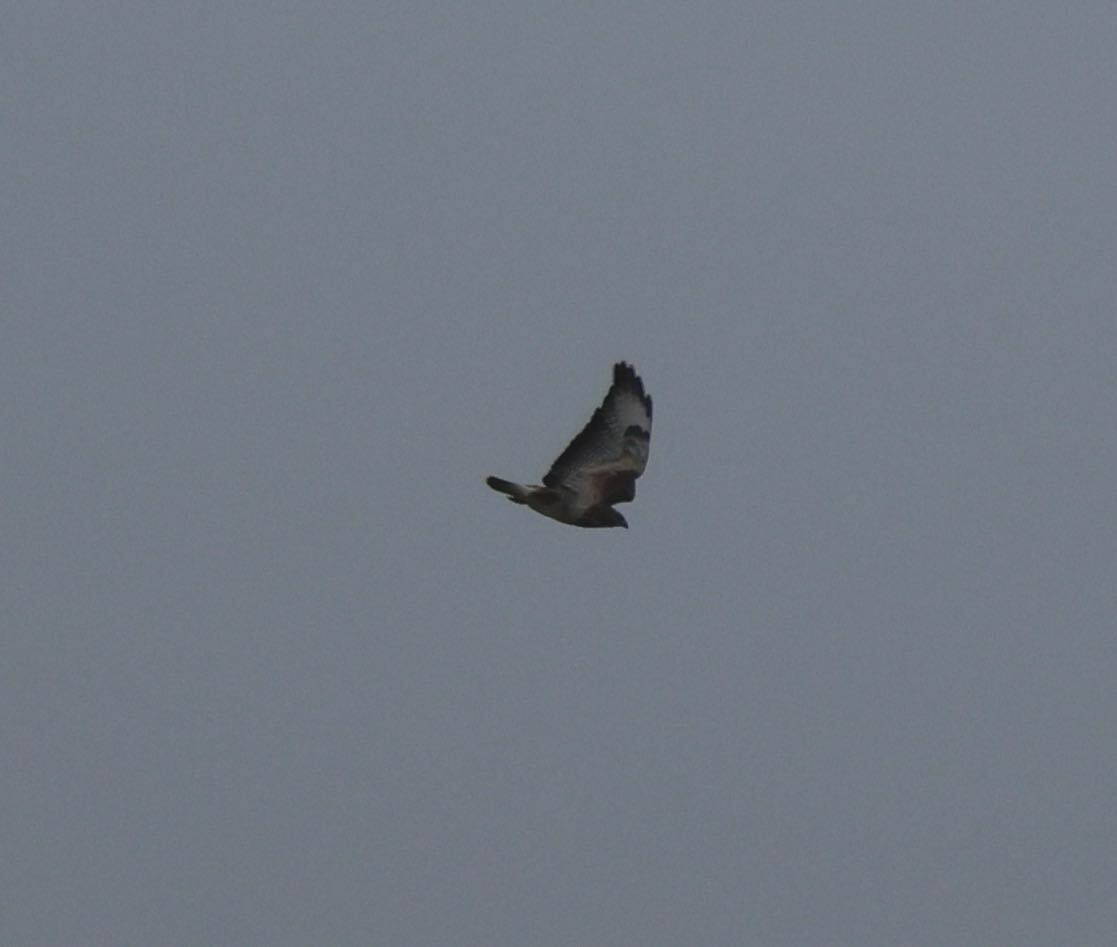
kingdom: Animalia
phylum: Chordata
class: Aves
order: Accipitriformes
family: Accipitridae
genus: Buteo
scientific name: Buteo buteo
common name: Common buzzard
